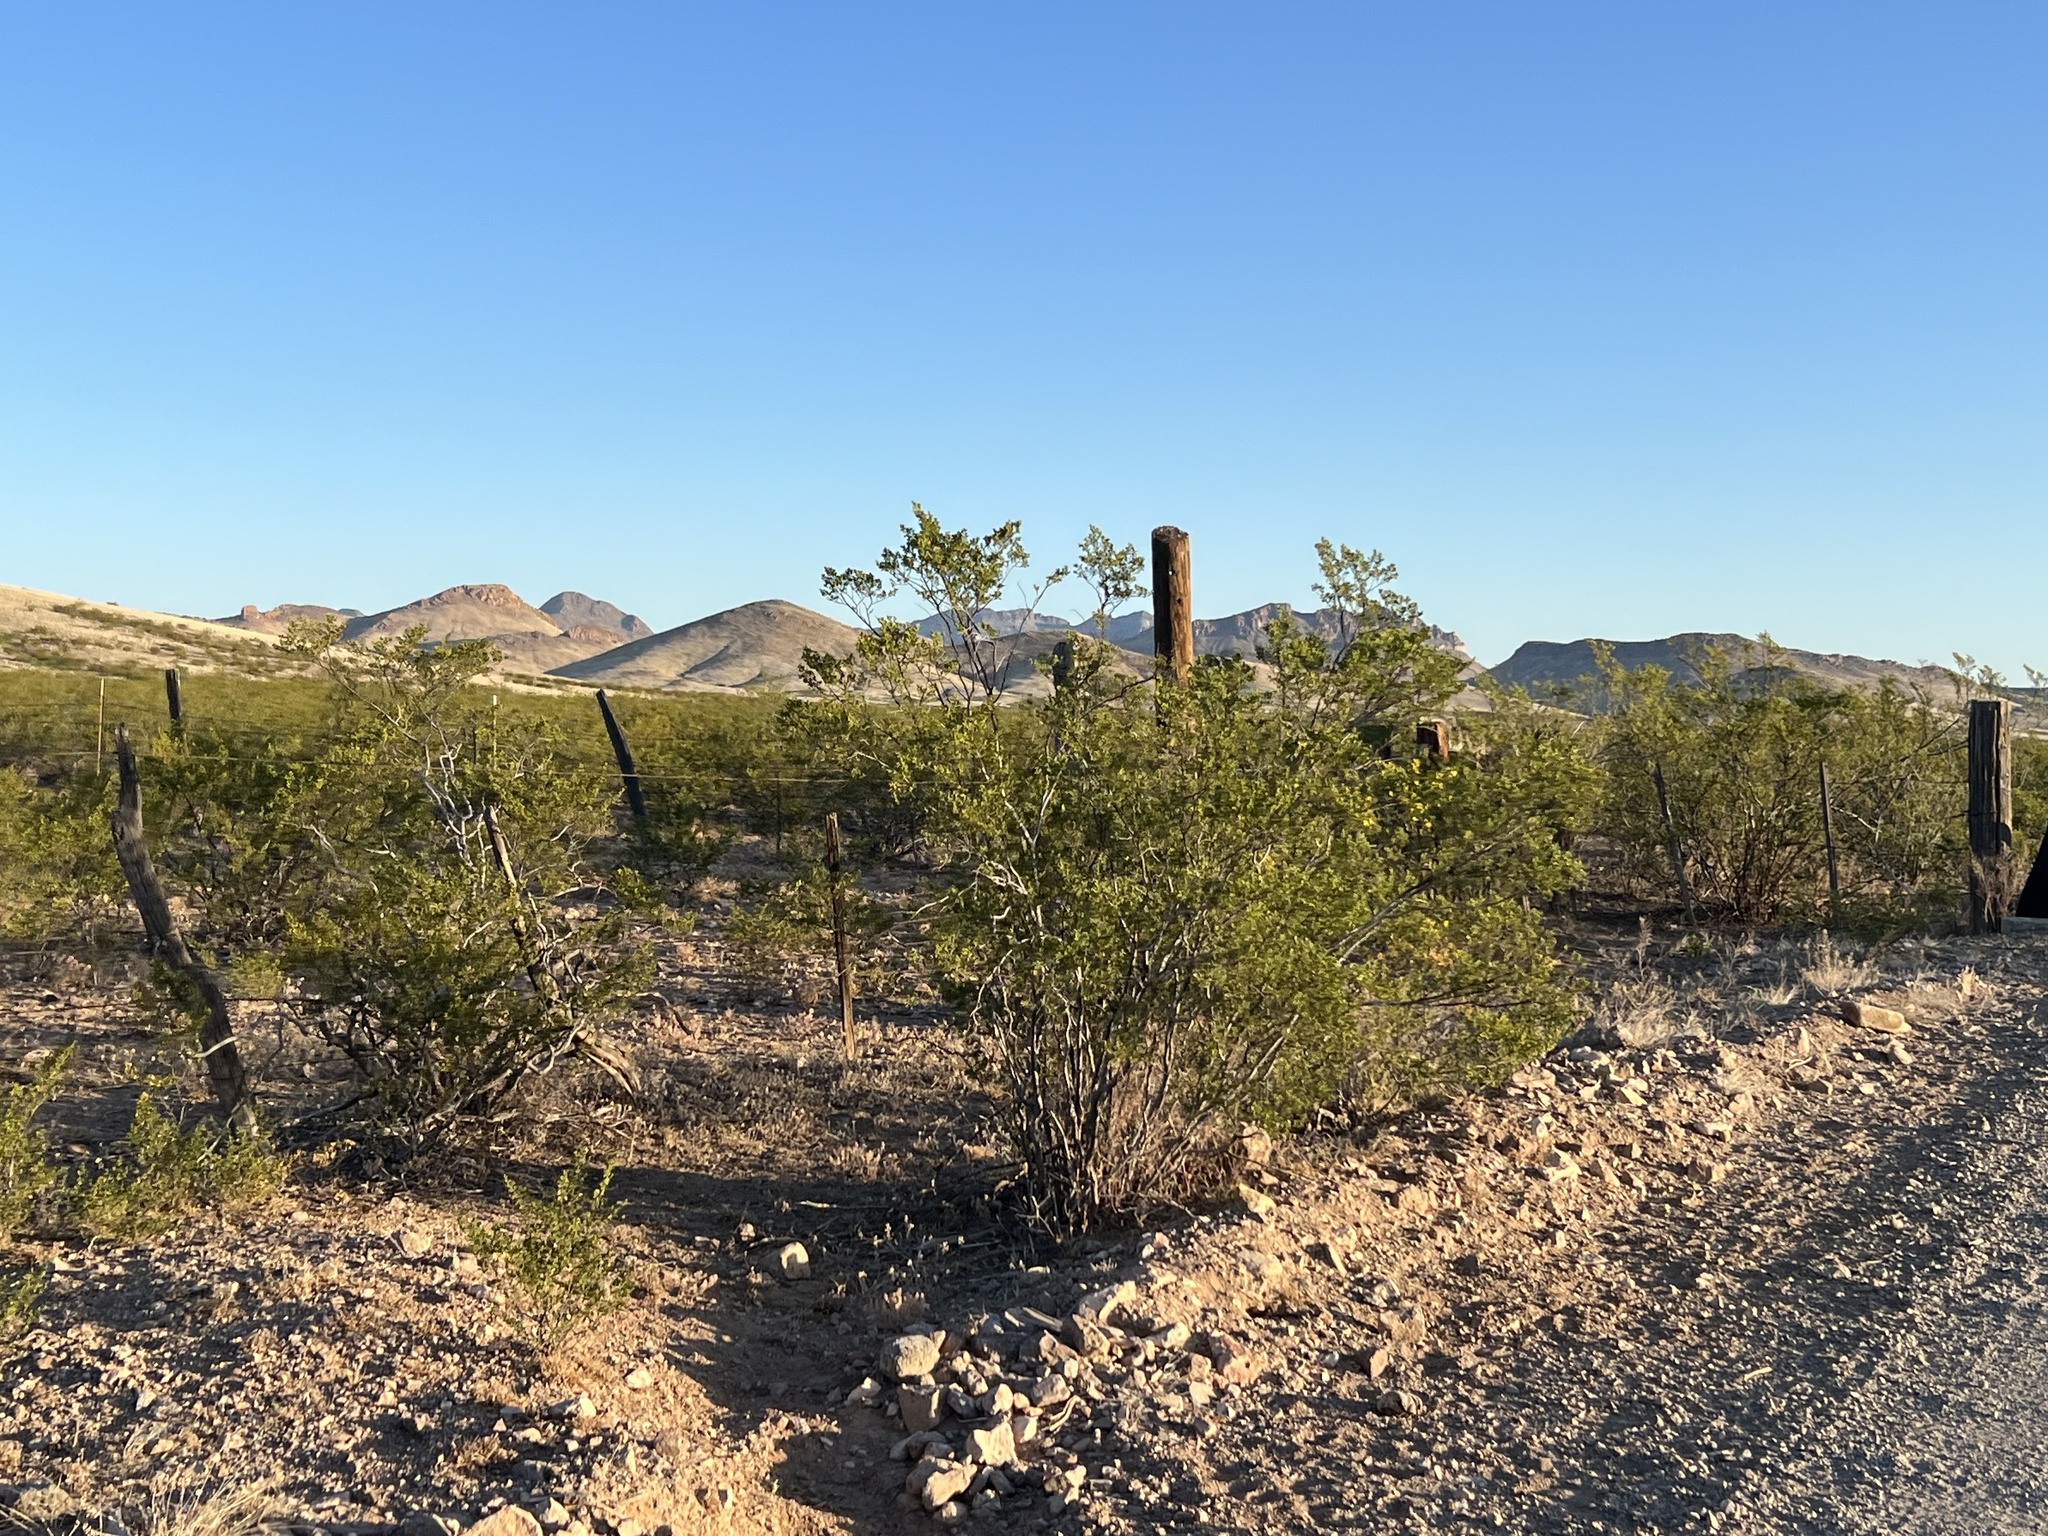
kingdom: Plantae
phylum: Tracheophyta
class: Magnoliopsida
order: Zygophyllales
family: Zygophyllaceae
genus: Larrea
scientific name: Larrea tridentata
